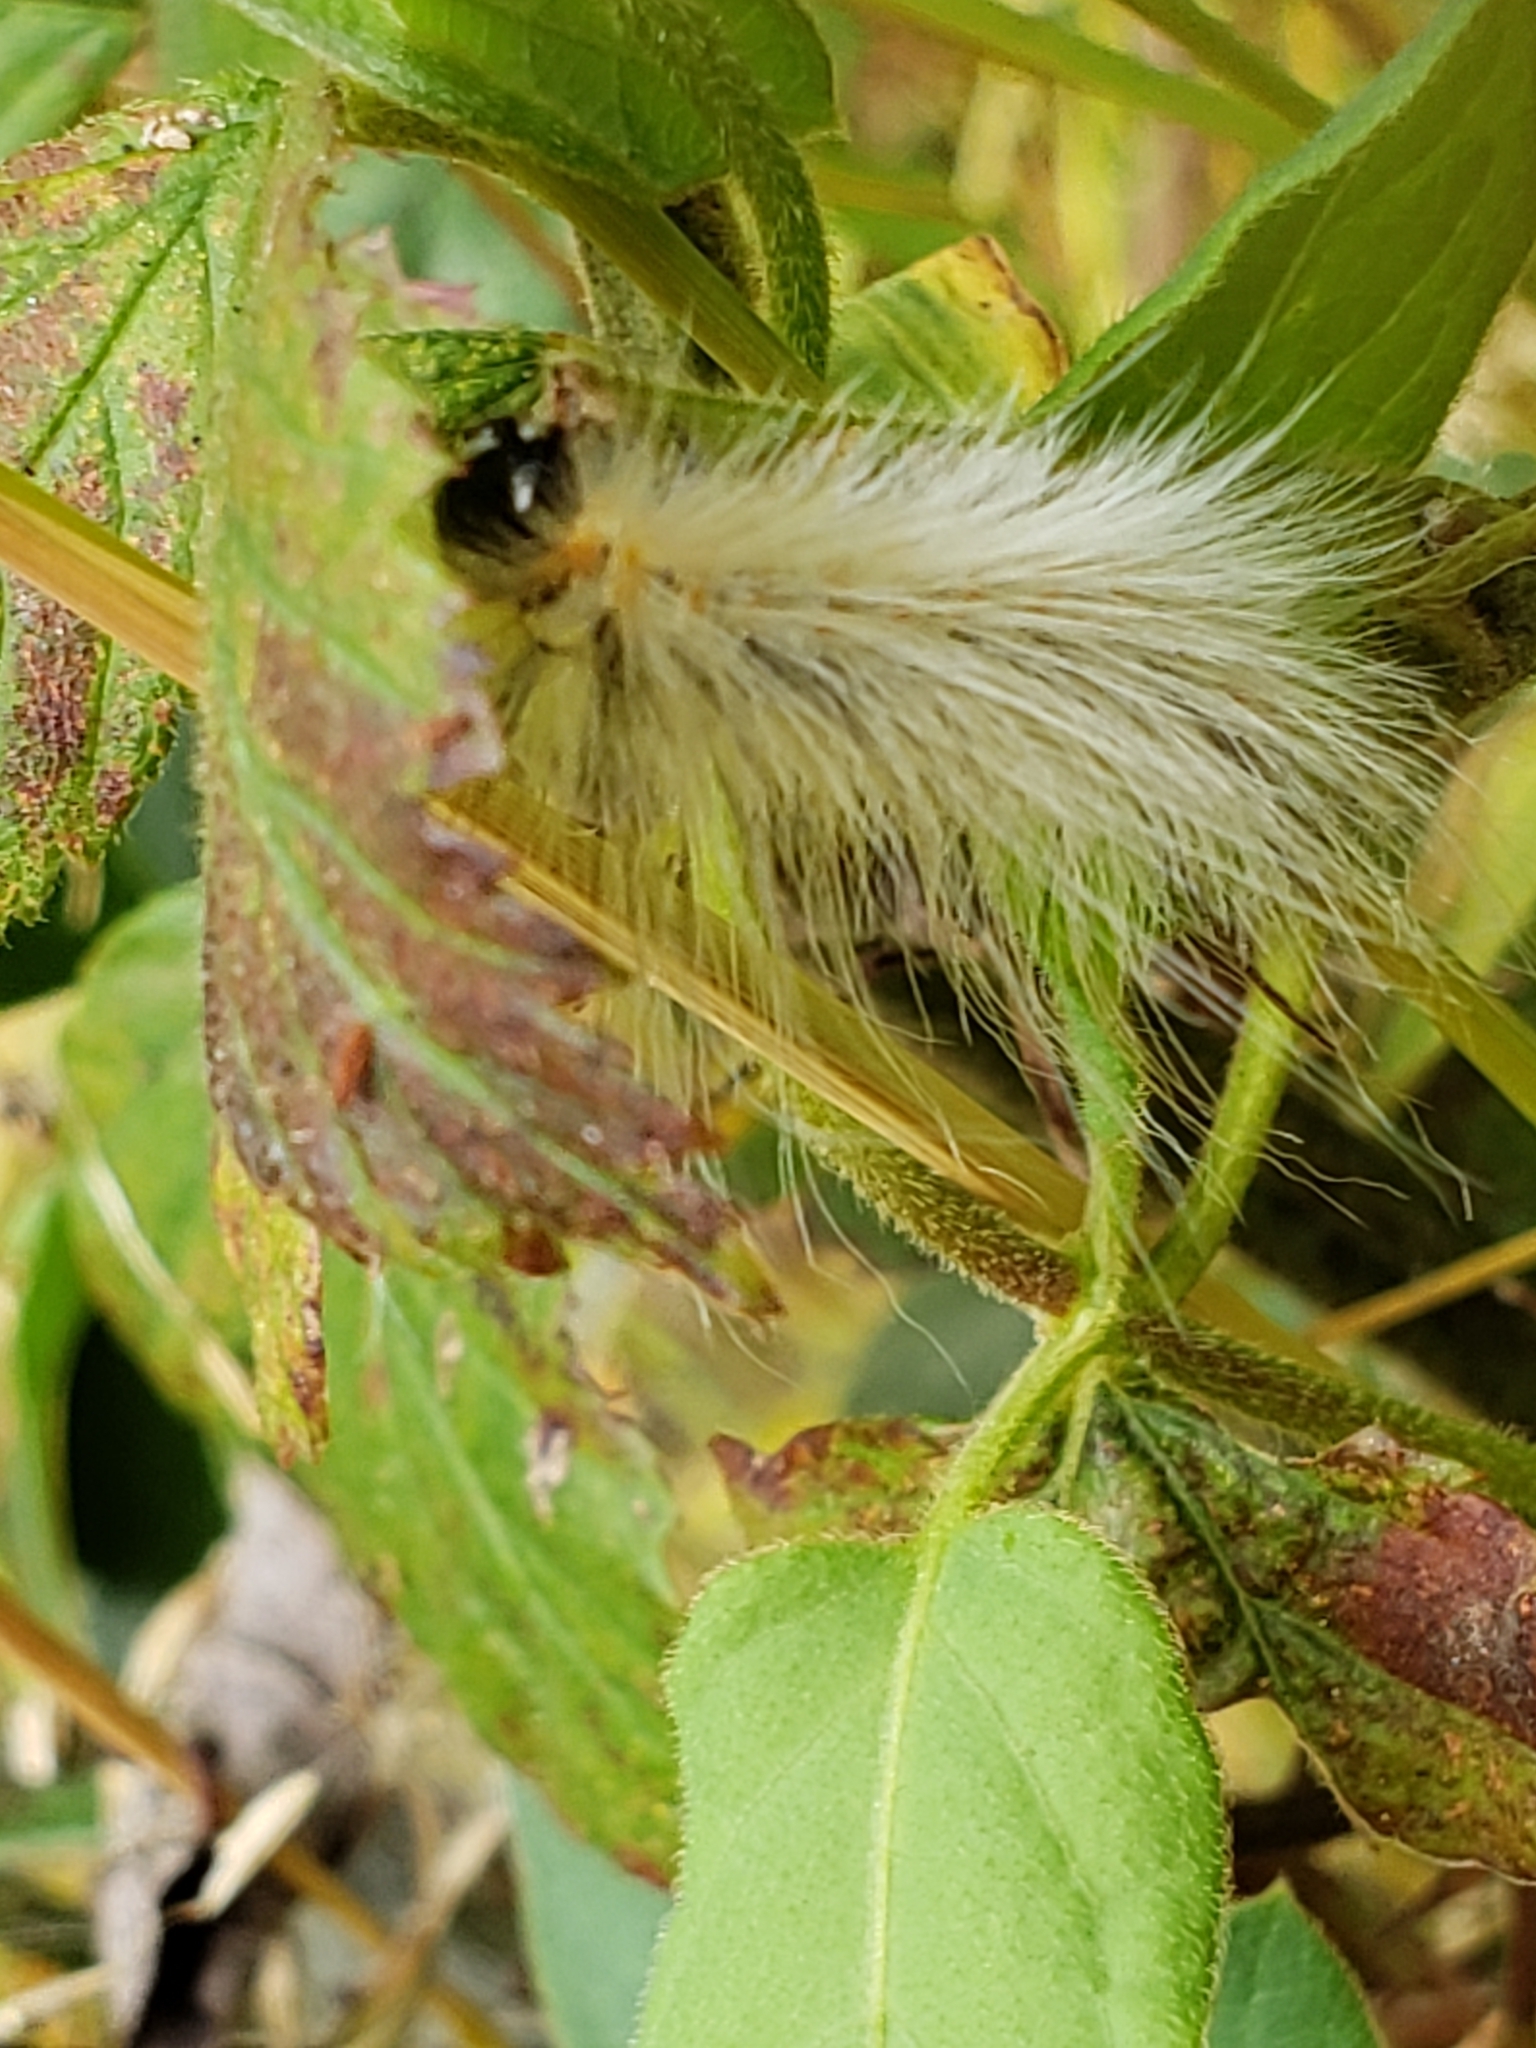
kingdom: Animalia
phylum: Arthropoda
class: Insecta
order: Lepidoptera
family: Erebidae
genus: Hyphantria
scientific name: Hyphantria cunea
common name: American white moth
